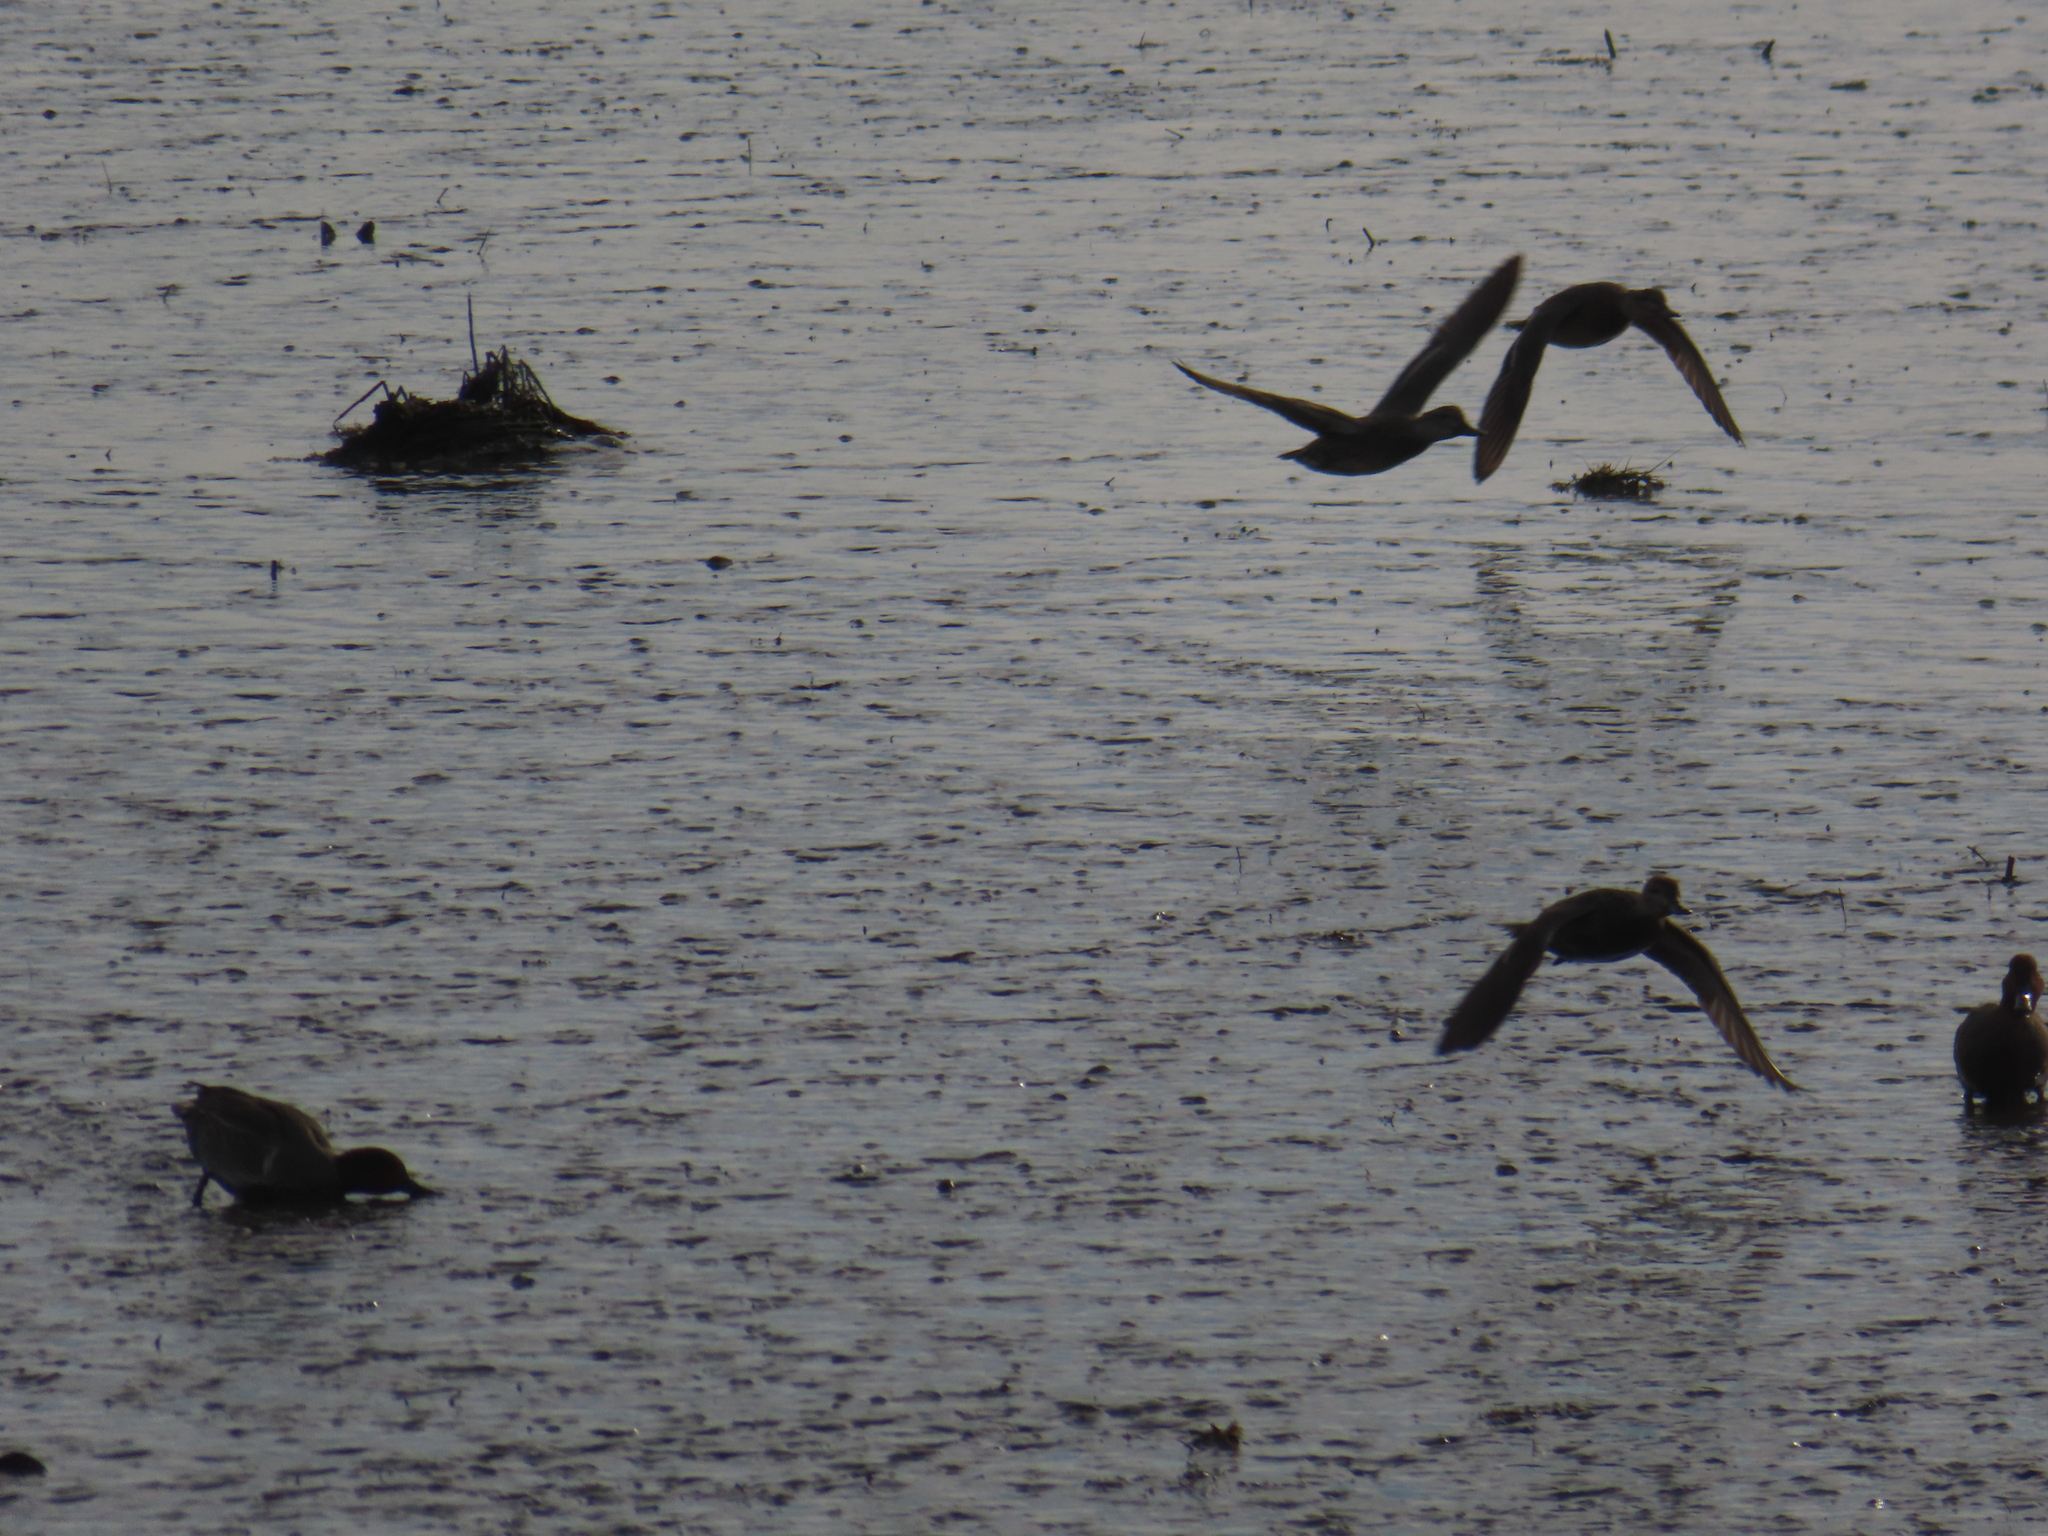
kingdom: Animalia
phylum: Chordata
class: Aves
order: Anseriformes
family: Anatidae
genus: Anas
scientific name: Anas crecca
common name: Eurasian teal
